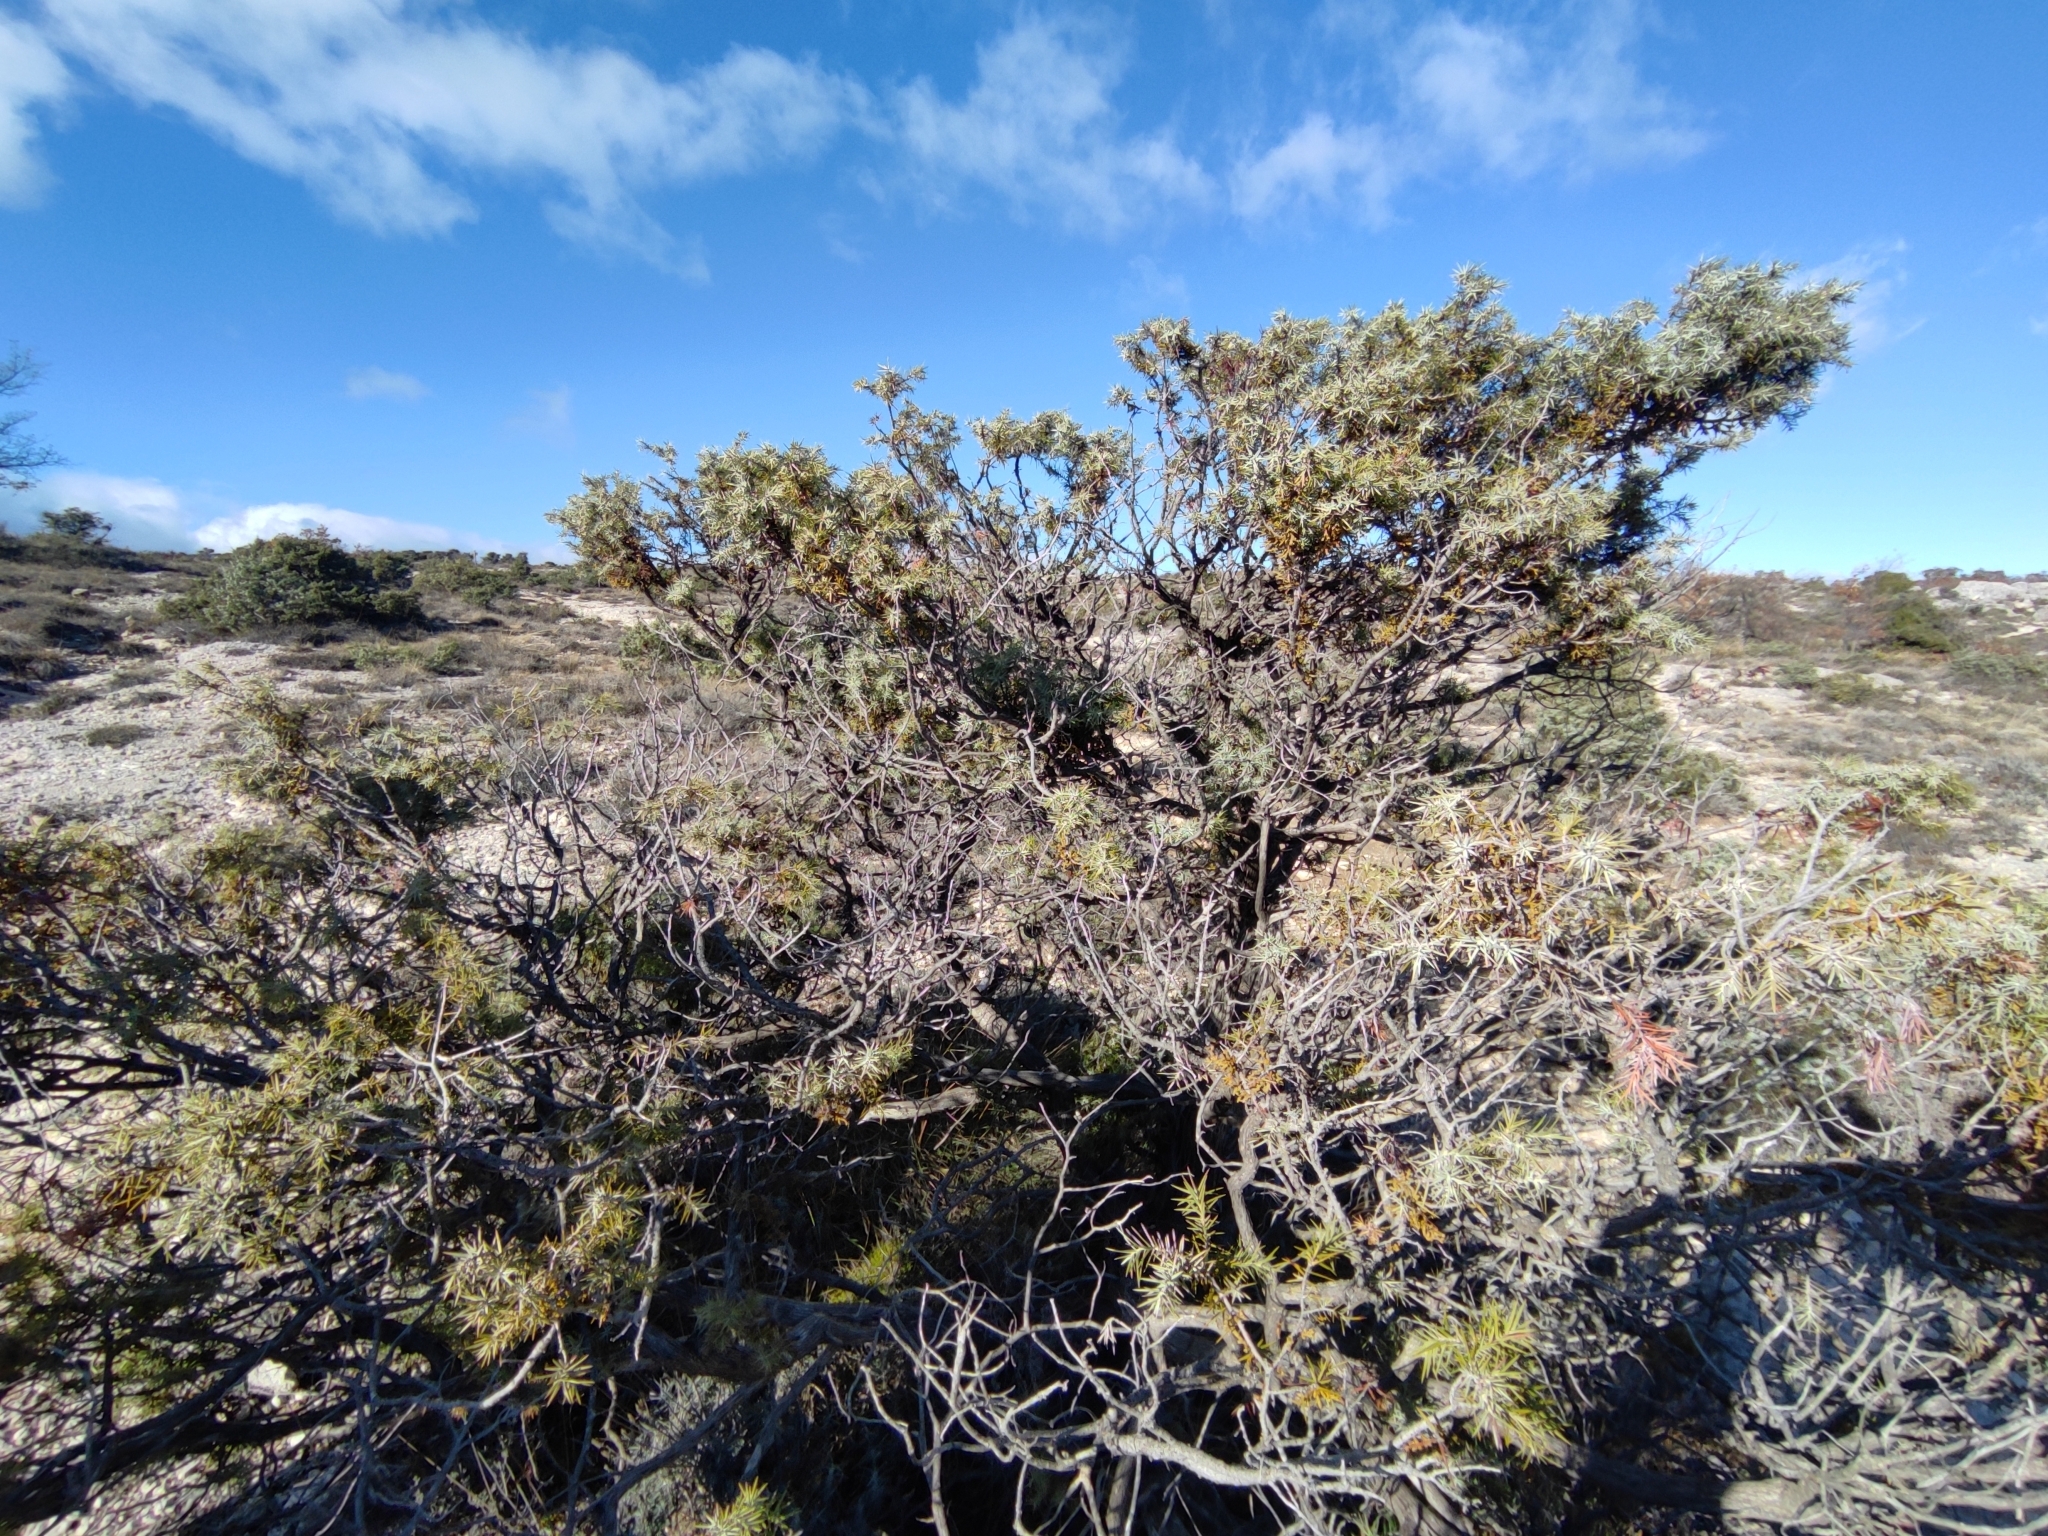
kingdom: Plantae
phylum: Tracheophyta
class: Magnoliopsida
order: Santalales
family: Viscaceae
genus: Arceuthobium
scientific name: Arceuthobium oxycedri
